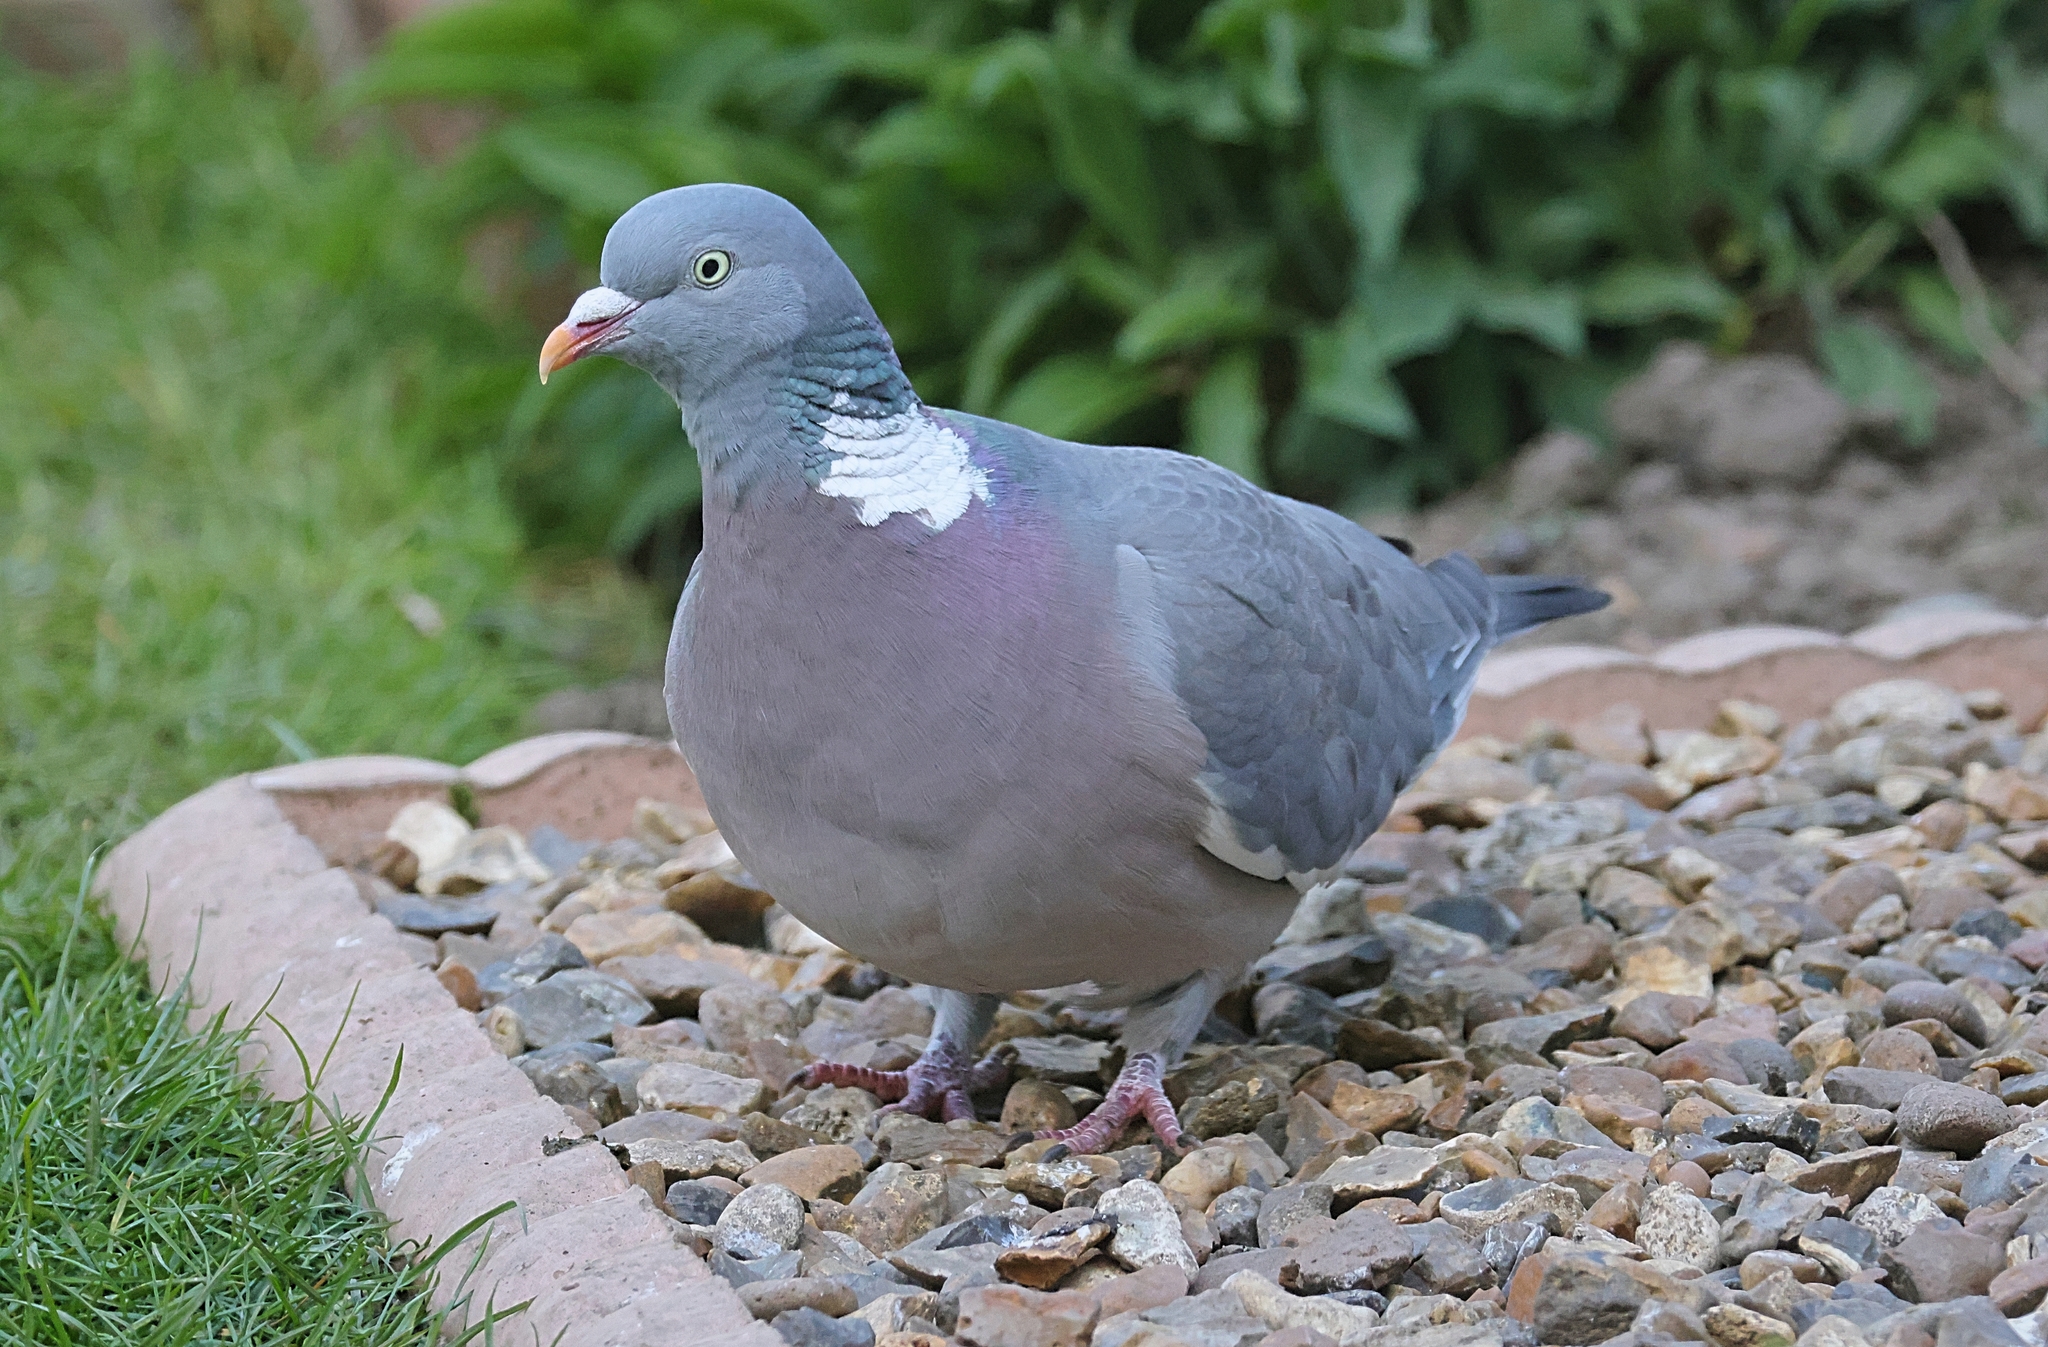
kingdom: Animalia
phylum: Chordata
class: Aves
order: Columbiformes
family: Columbidae
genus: Columba
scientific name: Columba palumbus
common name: Common wood pigeon
